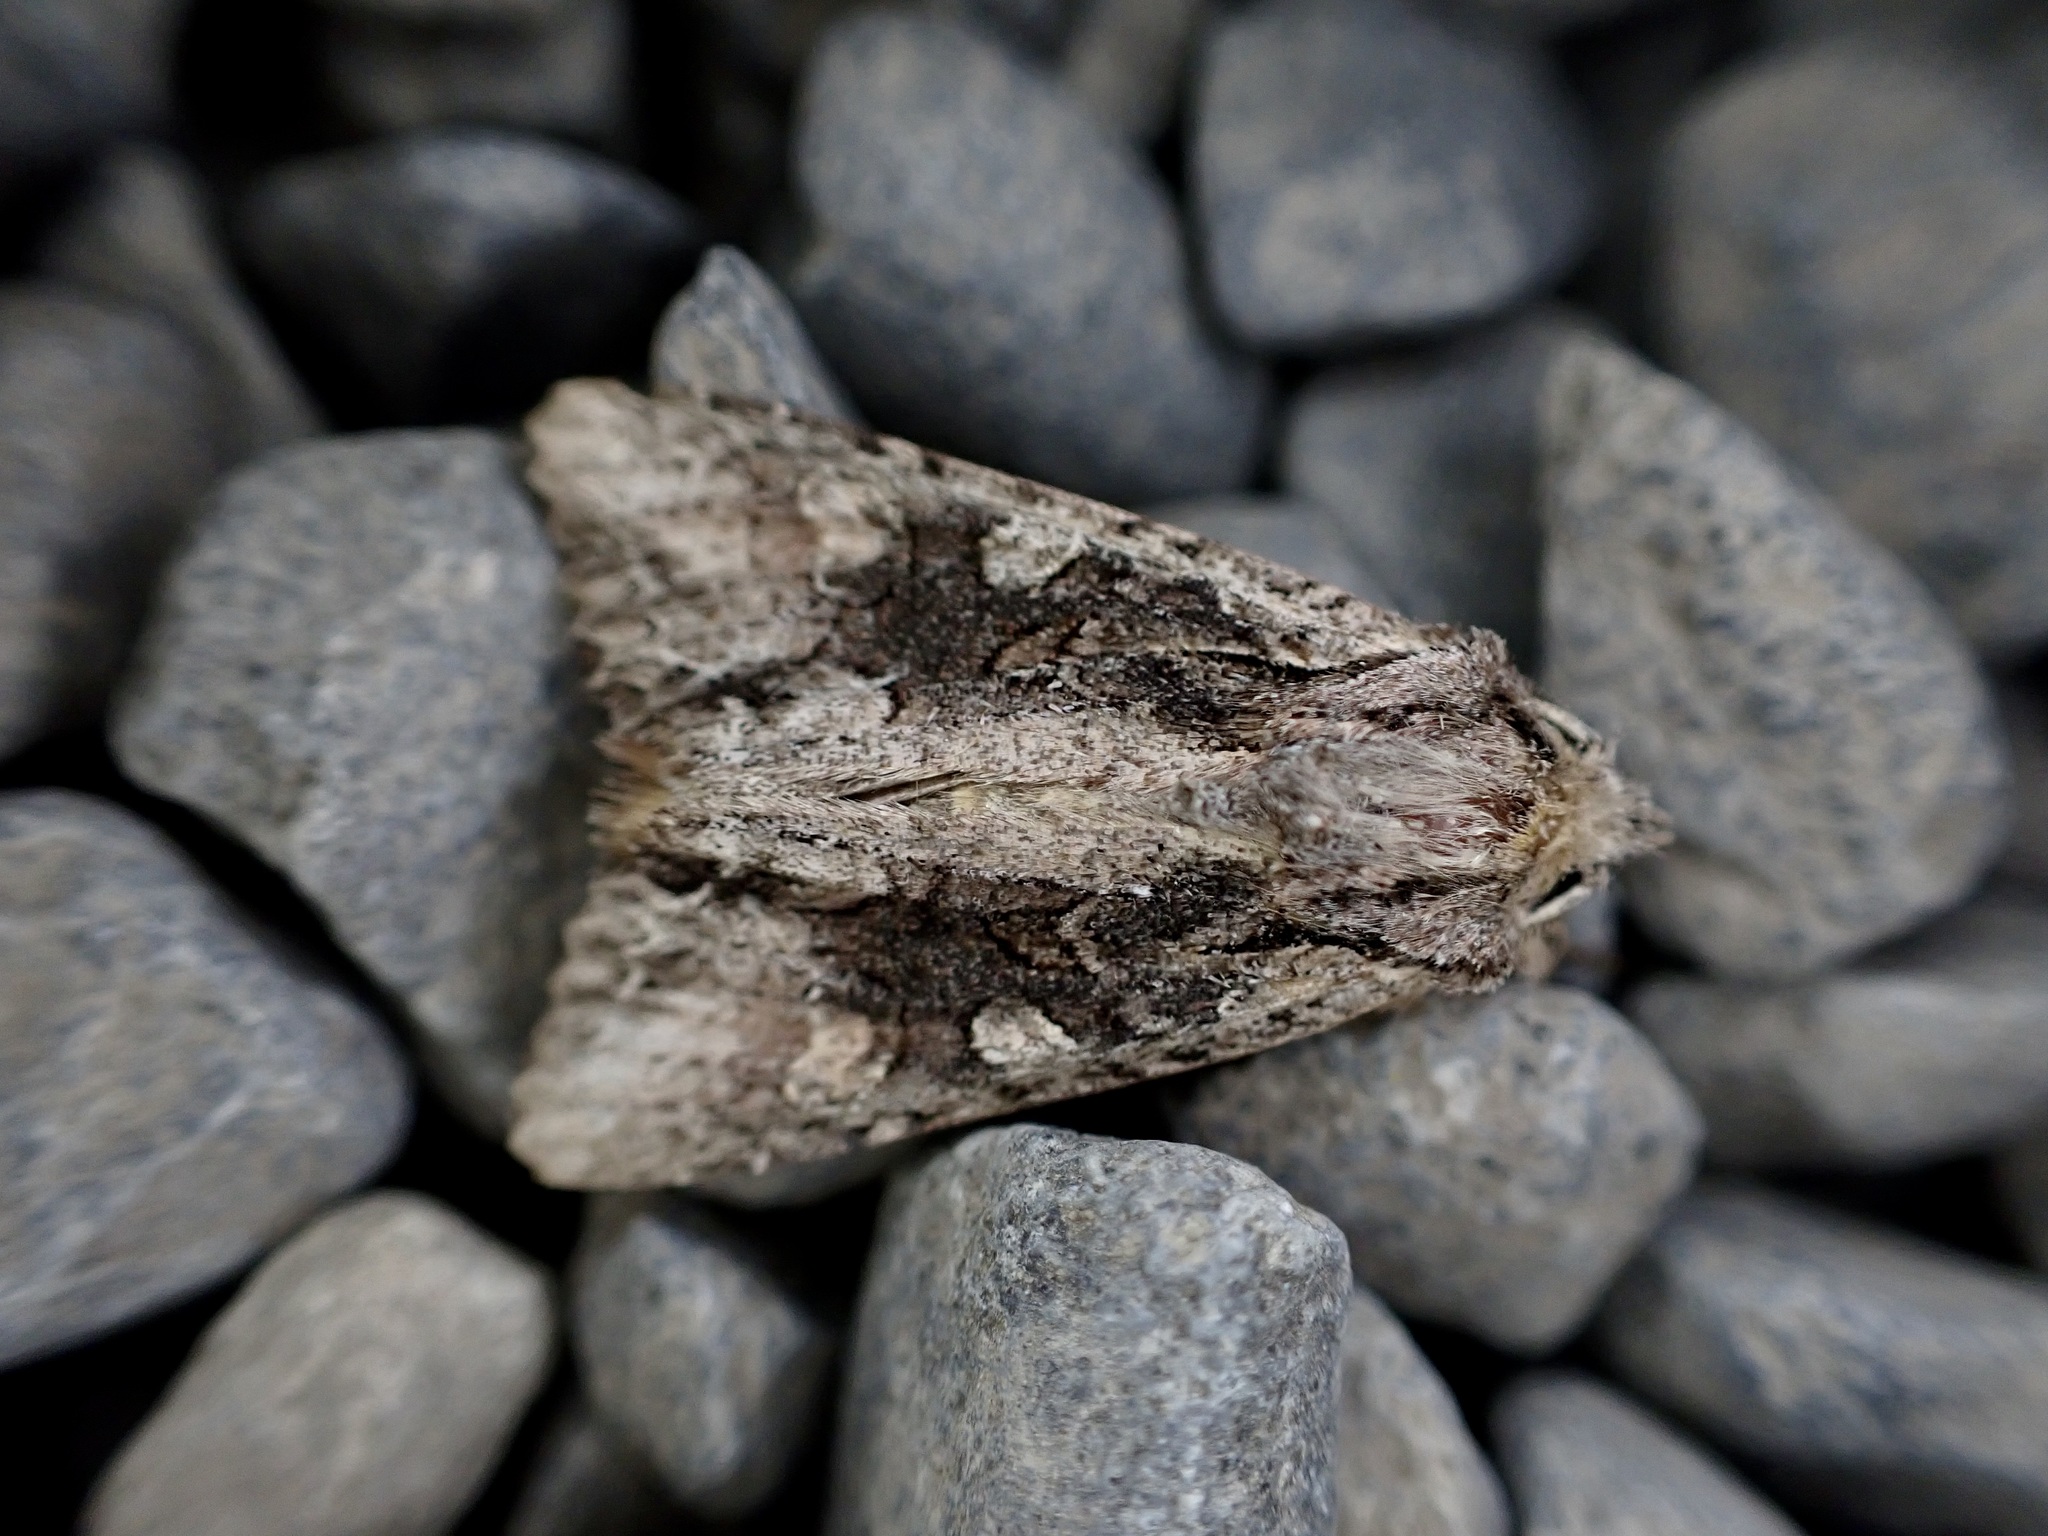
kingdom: Animalia
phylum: Arthropoda
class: Insecta
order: Lepidoptera
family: Noctuidae
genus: Ichneutica
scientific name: Ichneutica mutans
